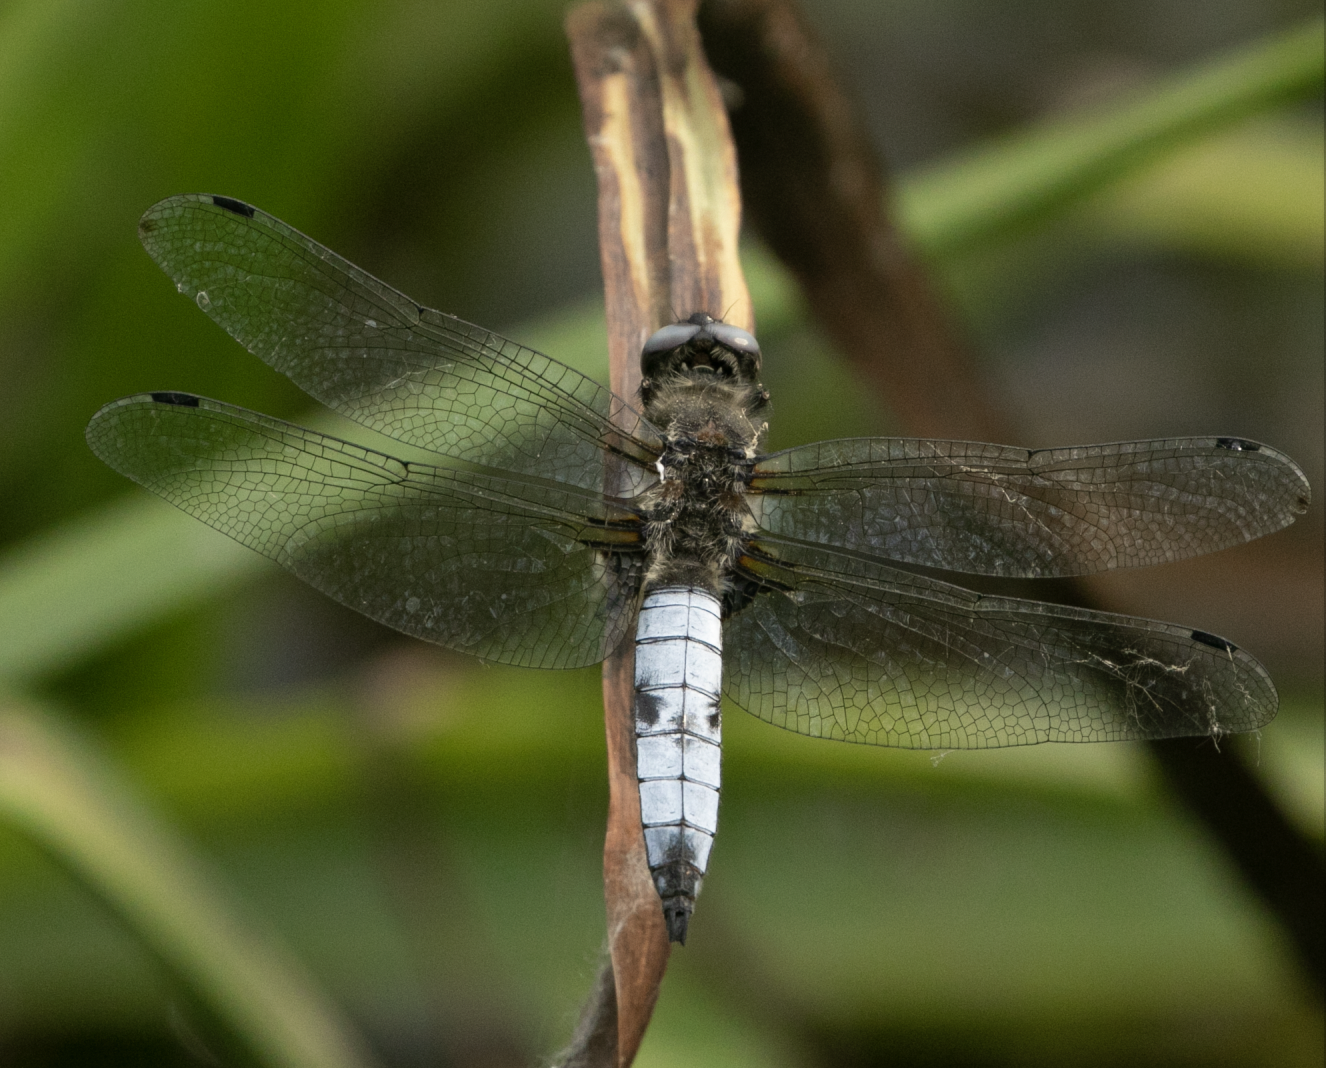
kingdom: Animalia
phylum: Arthropoda
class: Insecta
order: Odonata
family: Libellulidae
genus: Libellula
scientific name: Libellula fulva
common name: Blue chaser
